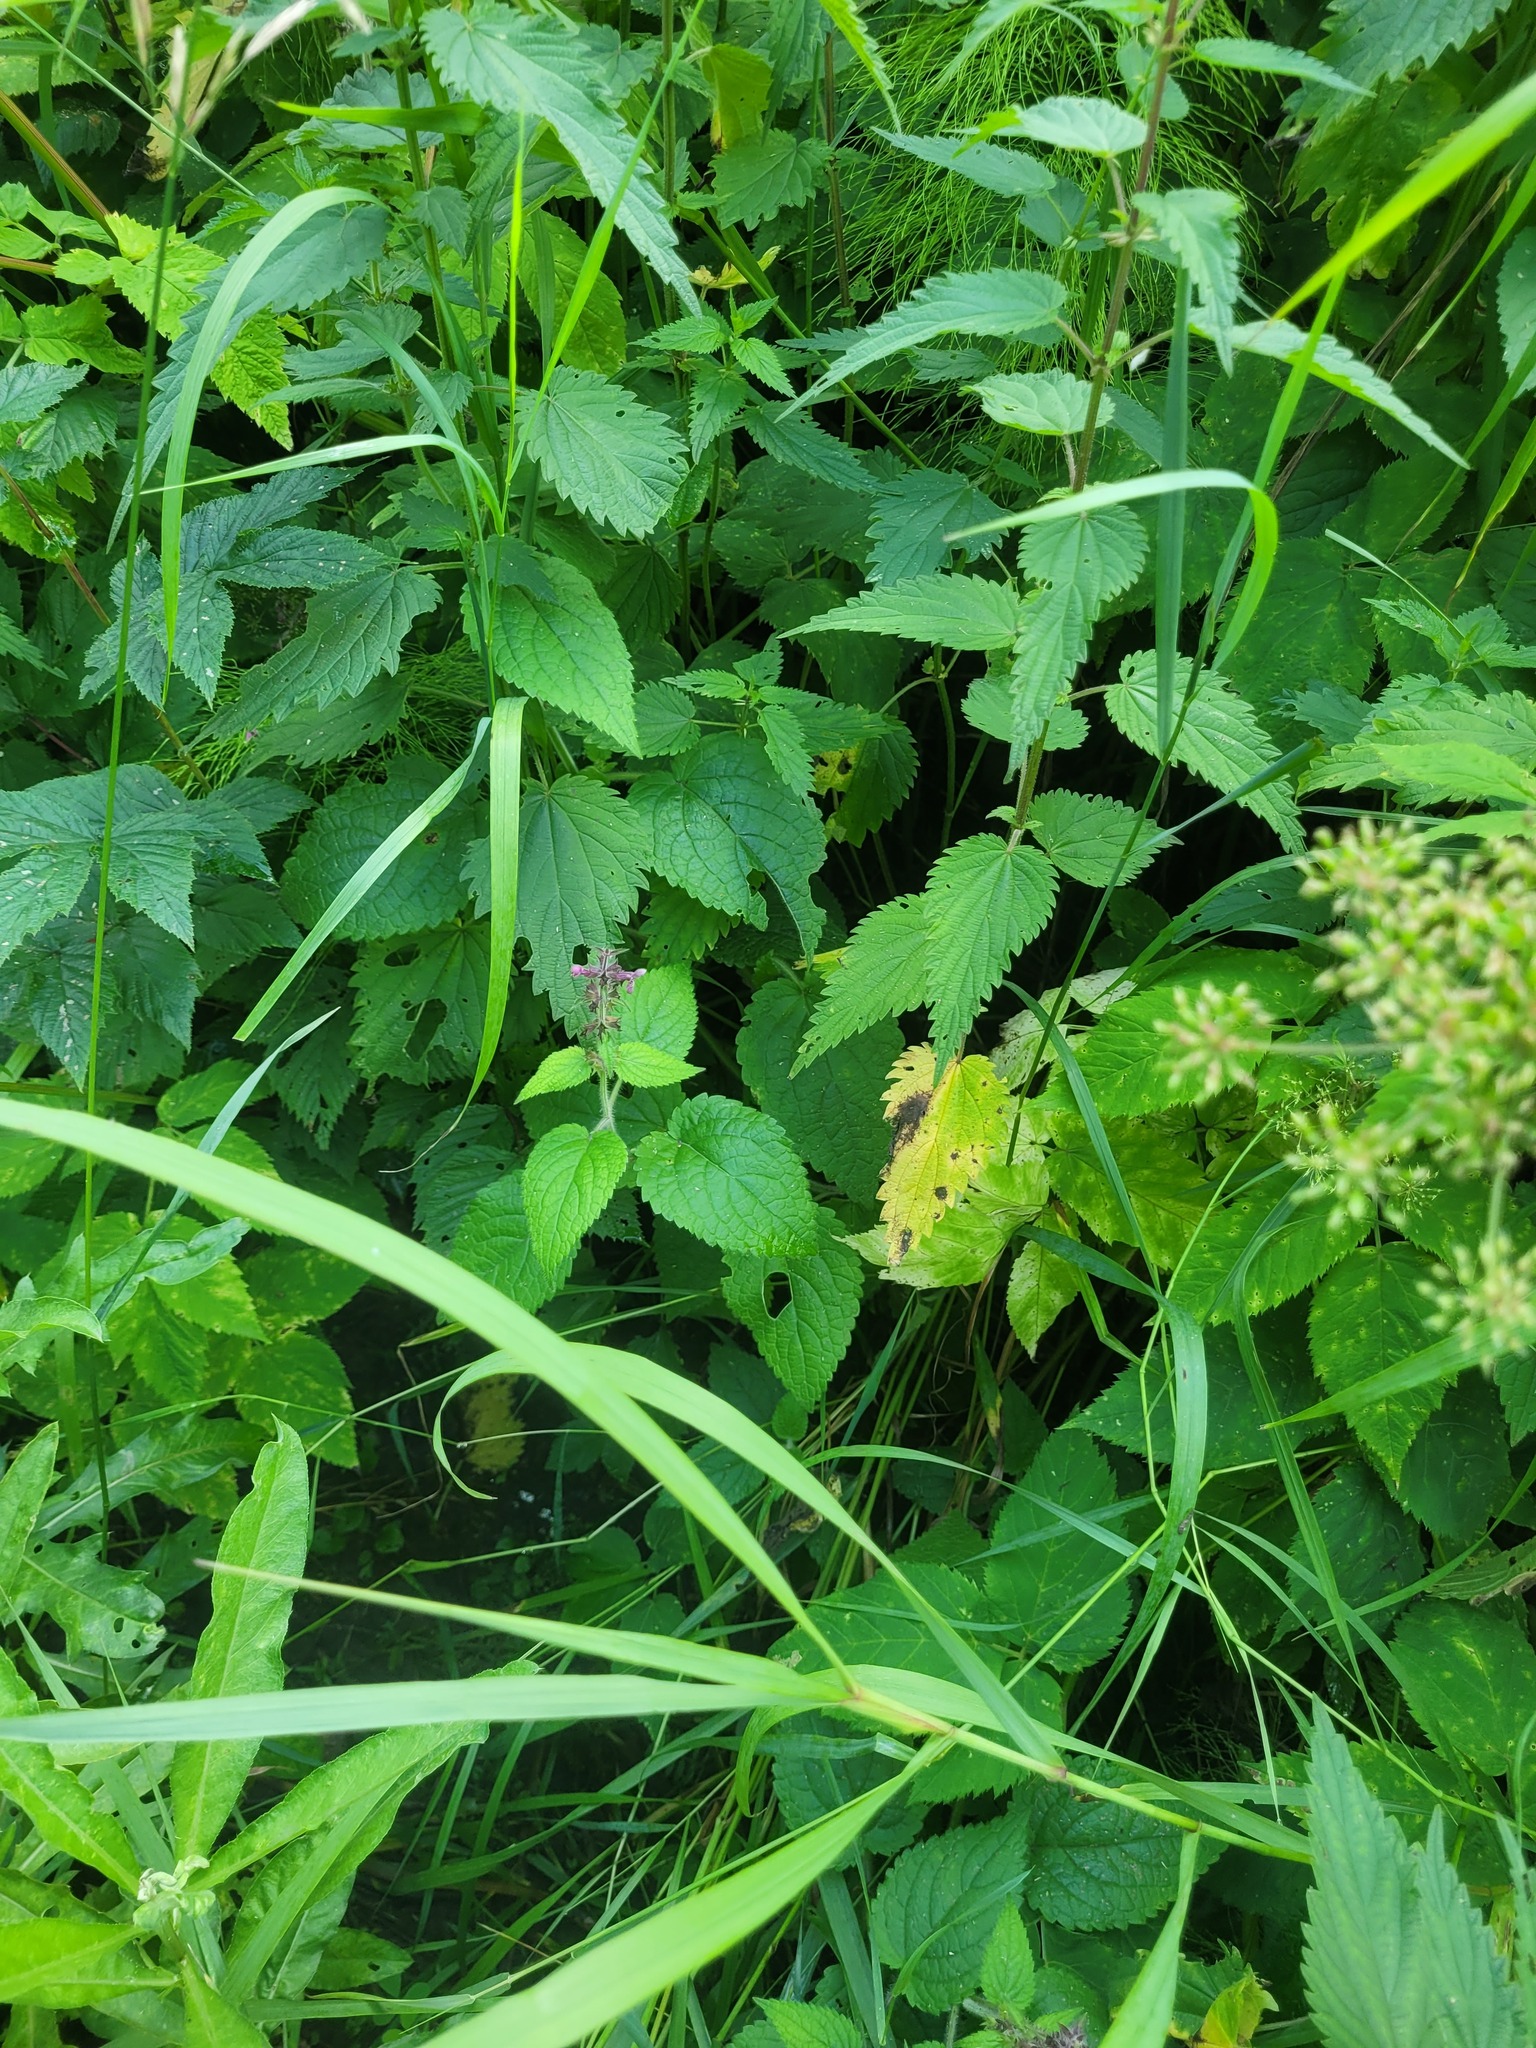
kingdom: Plantae
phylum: Tracheophyta
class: Magnoliopsida
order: Lamiales
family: Lamiaceae
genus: Stachys
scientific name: Stachys sylvatica
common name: Hedge woundwort
